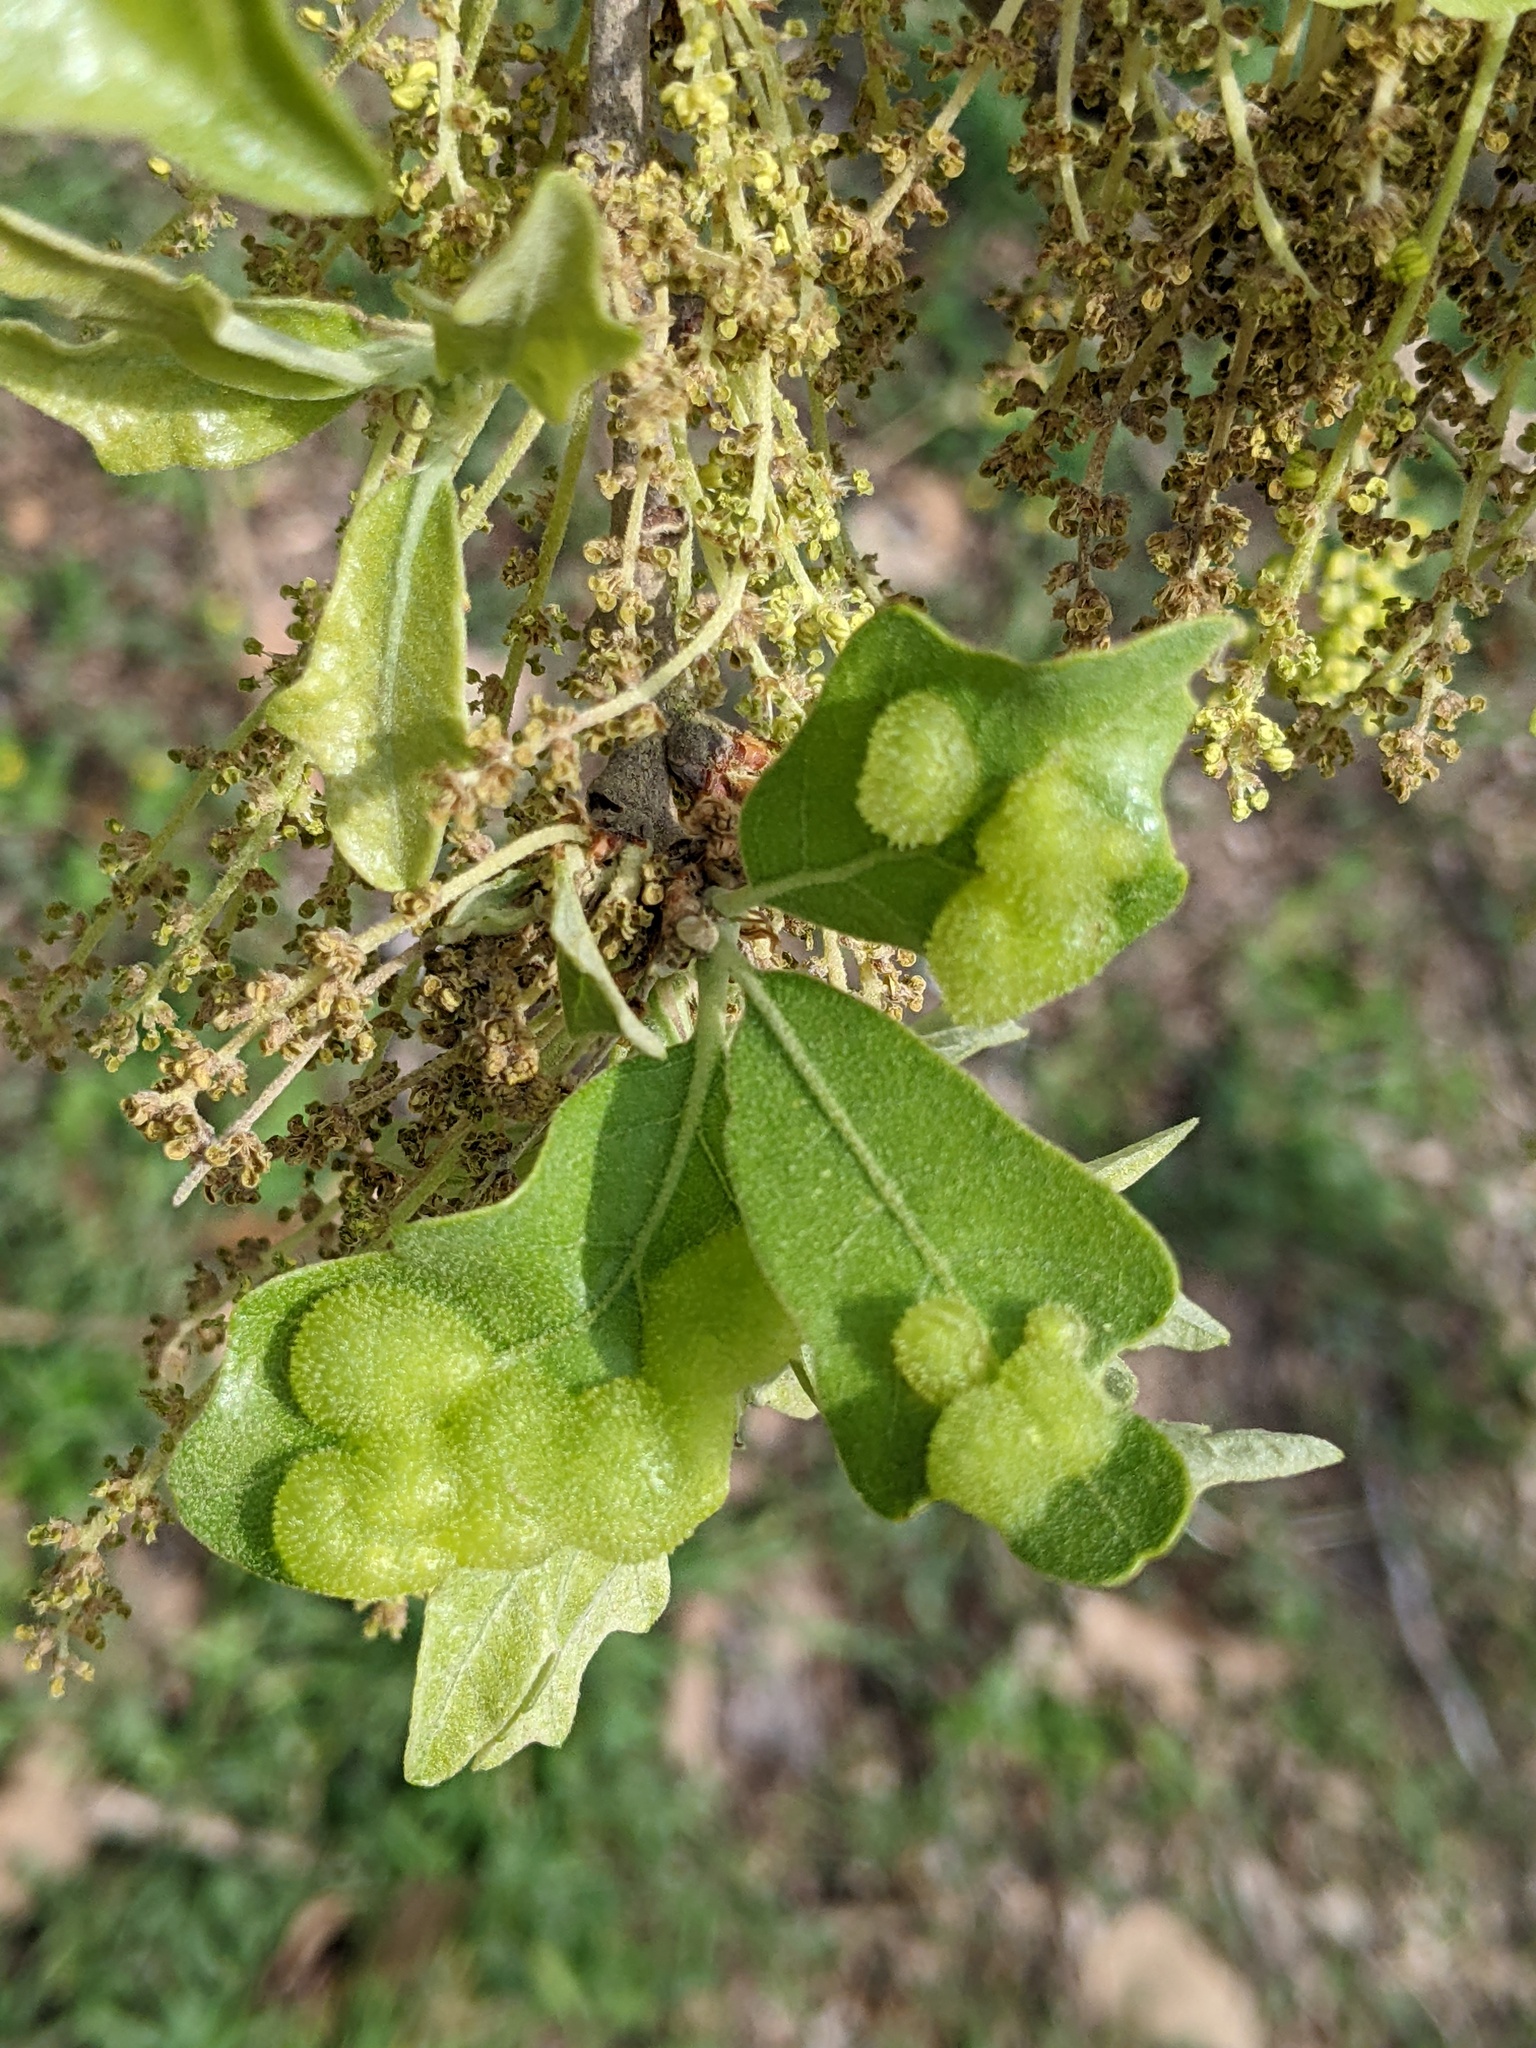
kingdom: Animalia
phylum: Arthropoda
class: Insecta
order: Hymenoptera
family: Cynipidae
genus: Neuroterus
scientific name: Neuroterus quercusirregularis
